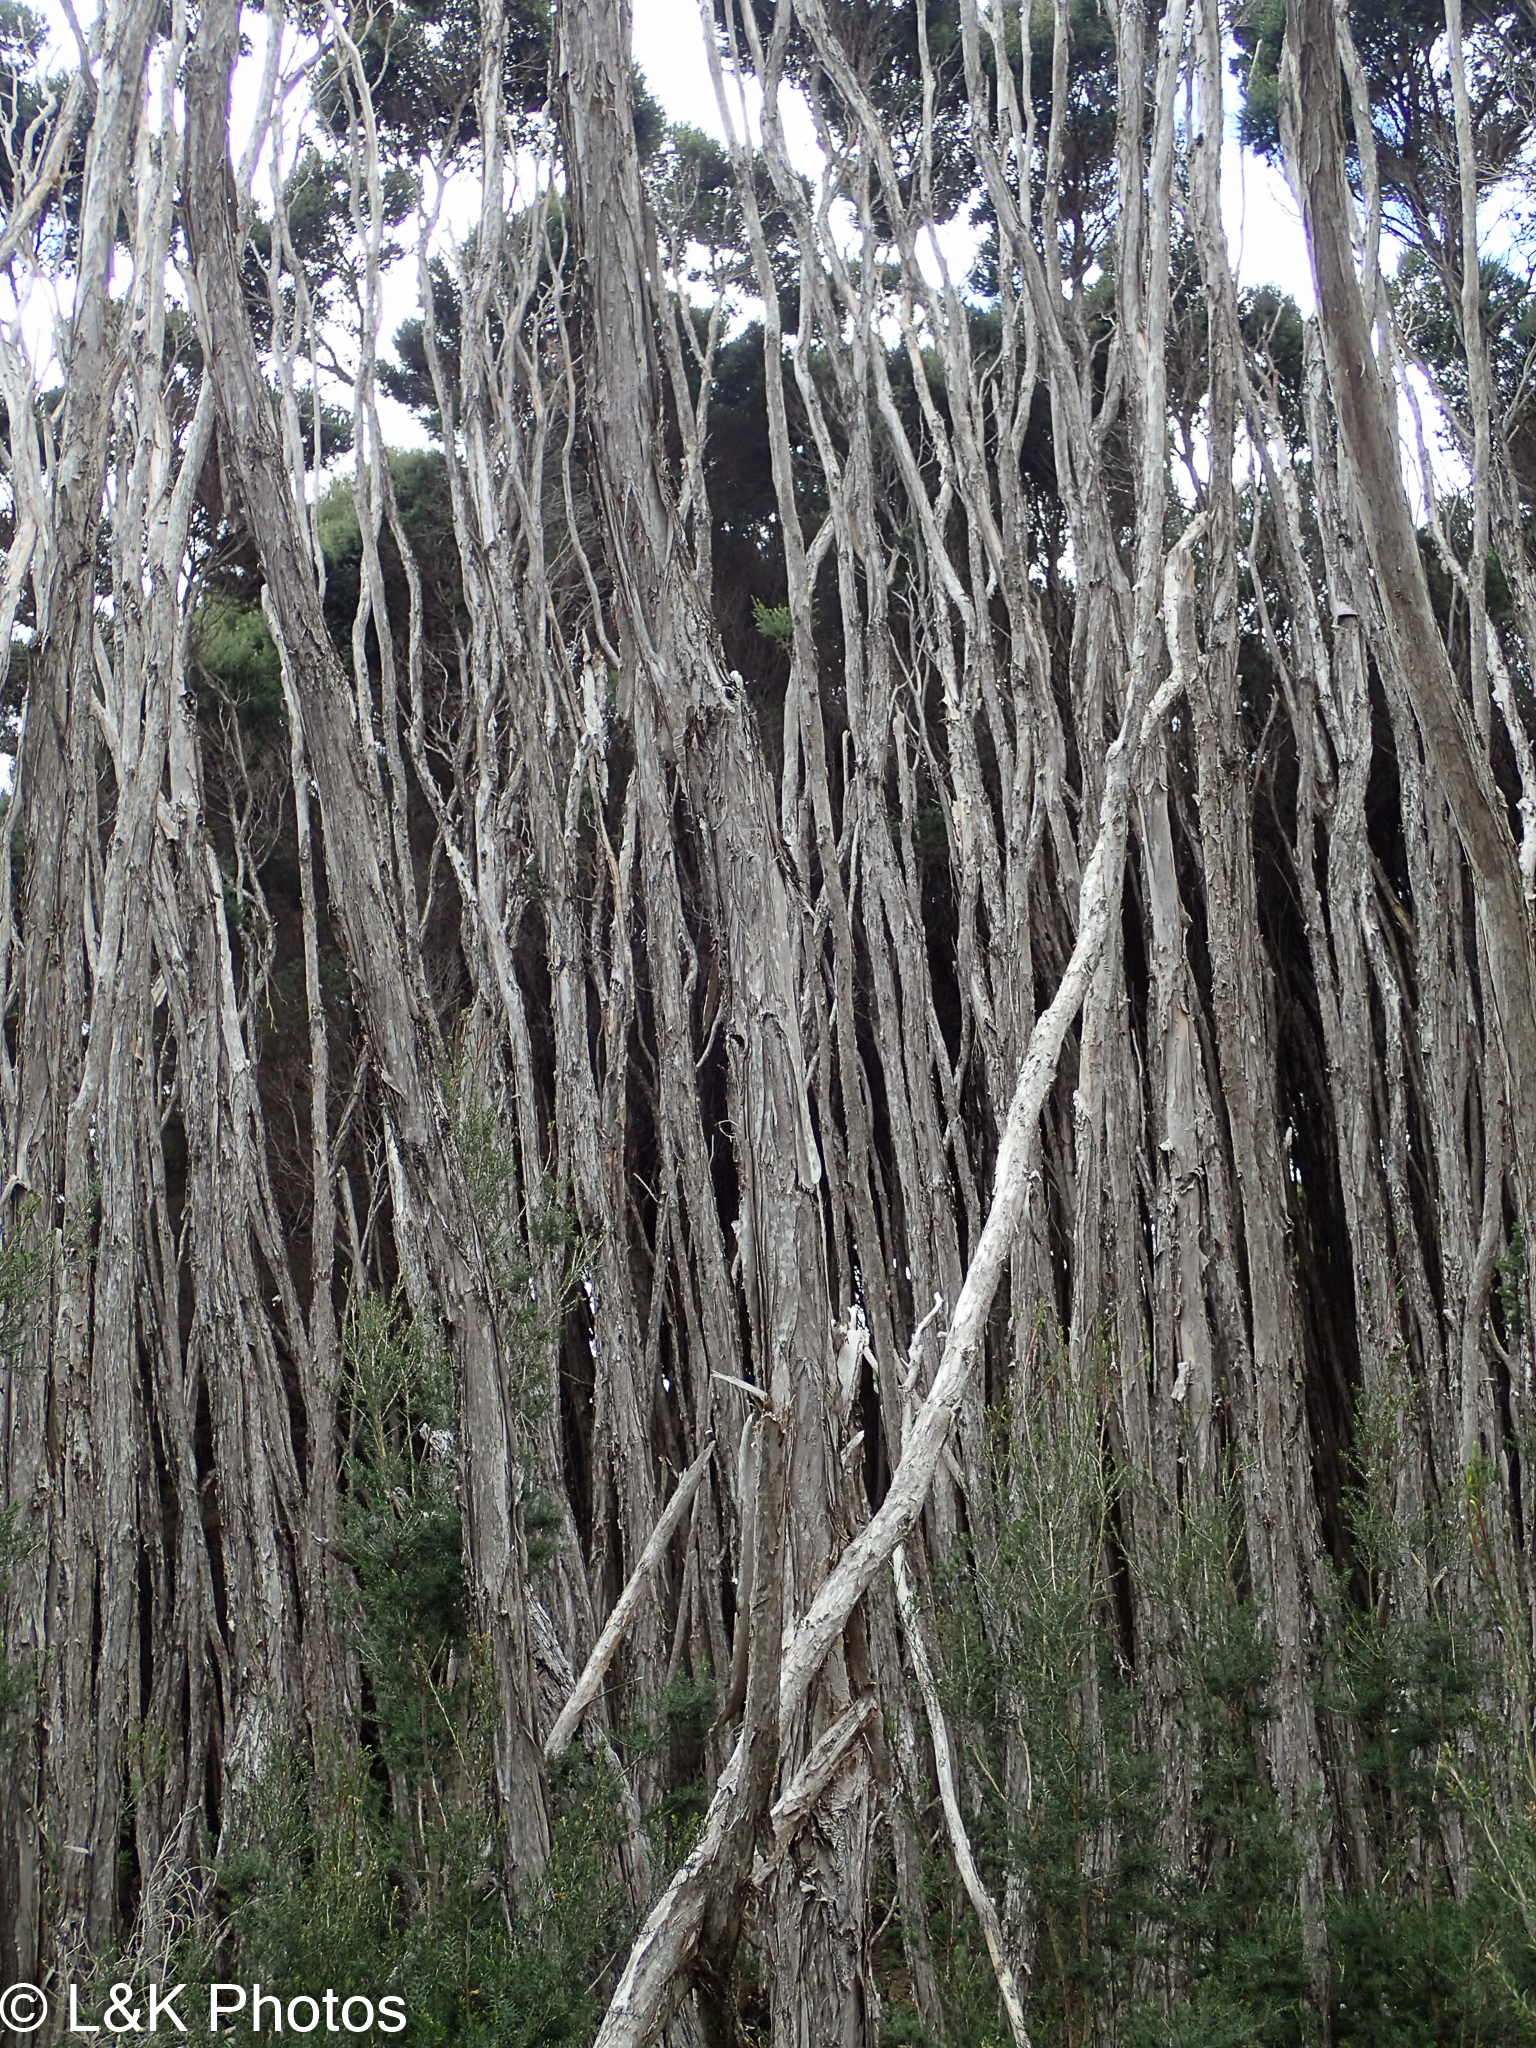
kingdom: Plantae
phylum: Tracheophyta
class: Magnoliopsida
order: Myrtales
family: Myrtaceae
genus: Melaleuca
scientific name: Melaleuca ericifolia
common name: Paperbark teatree
